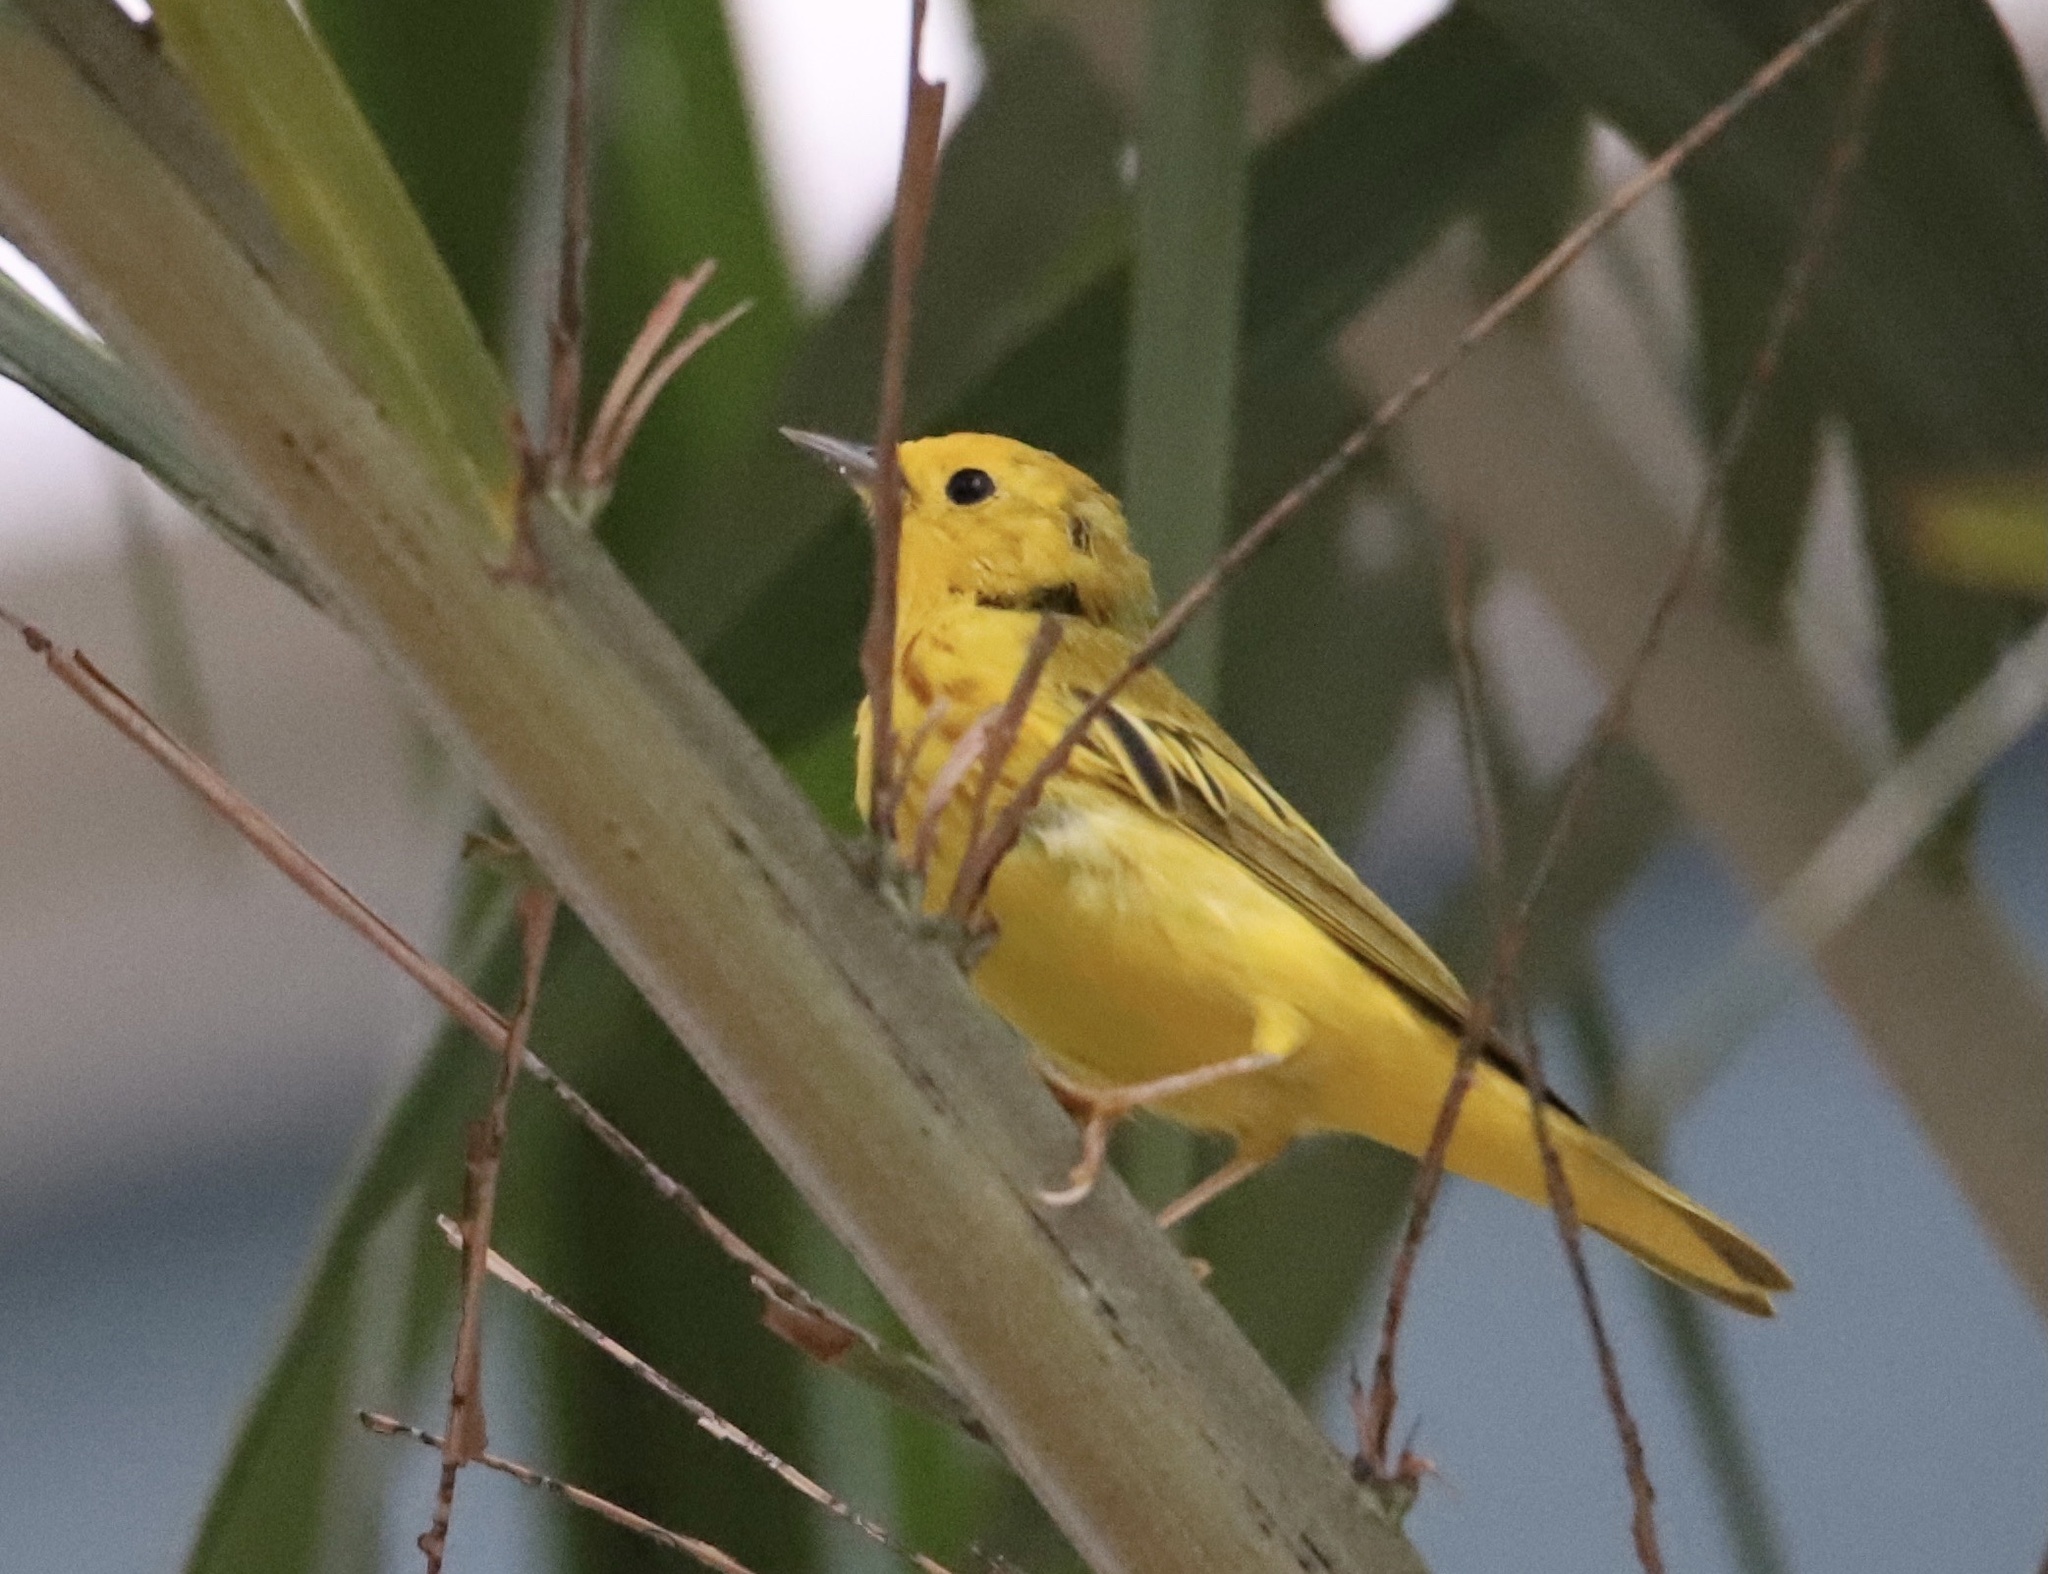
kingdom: Animalia
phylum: Chordata
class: Aves
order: Passeriformes
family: Parulidae
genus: Setophaga
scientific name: Setophaga petechia
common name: Yellow warbler
